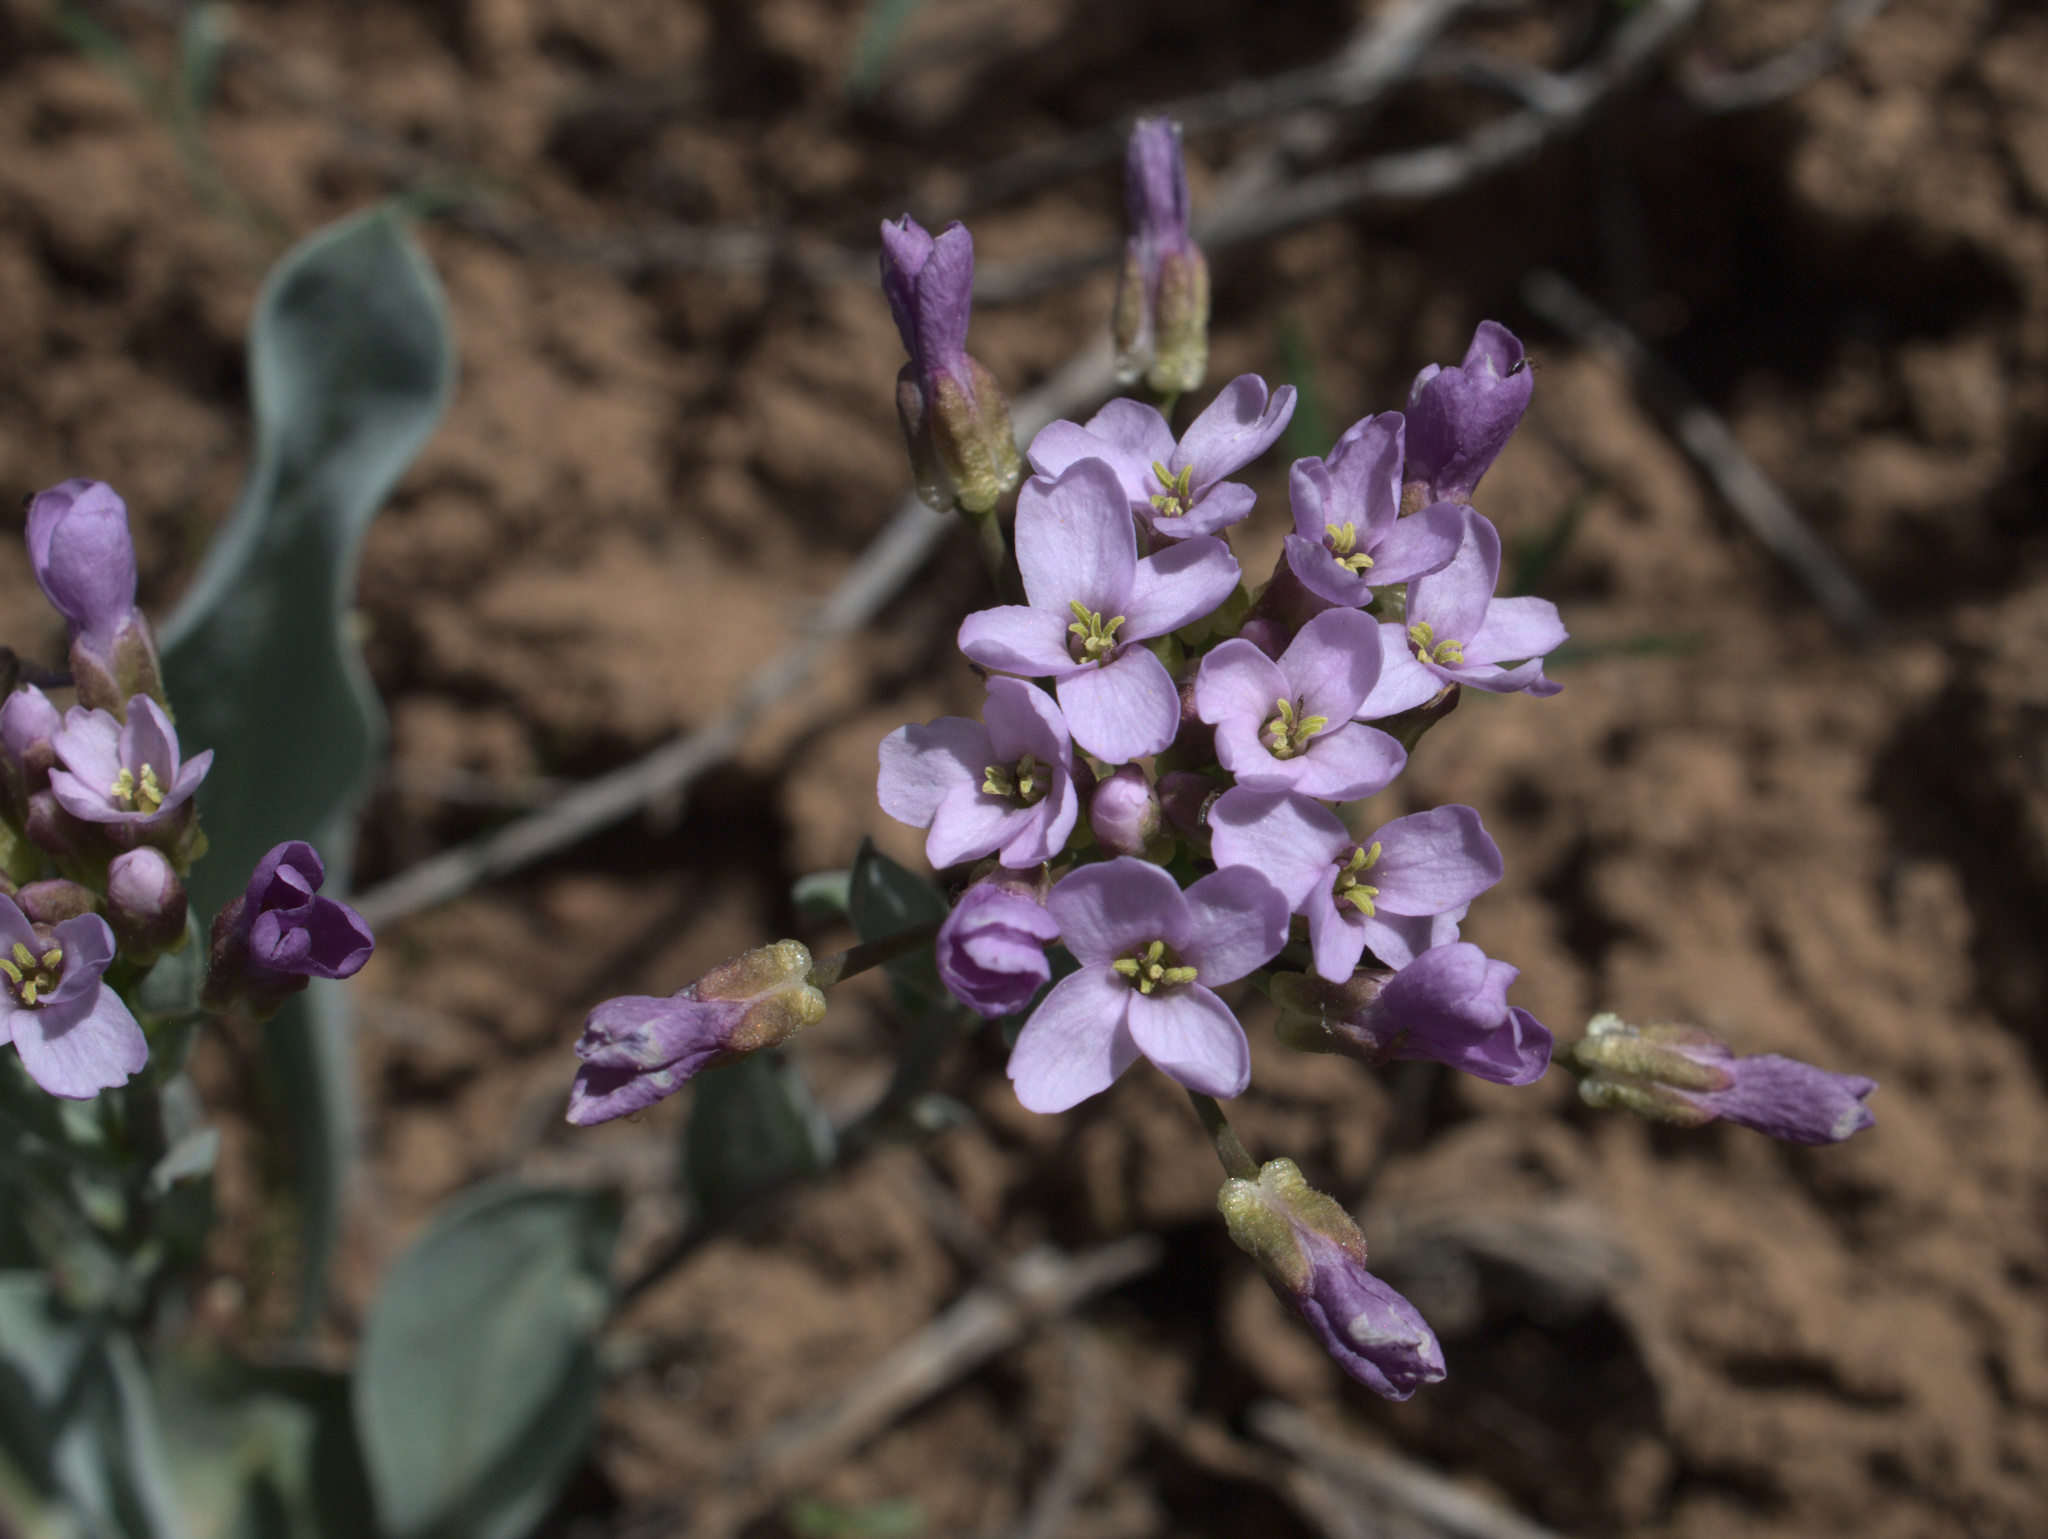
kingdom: Plantae
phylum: Tracheophyta
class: Magnoliopsida
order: Brassicales
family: Brassicaceae
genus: Phoenicaulis
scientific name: Phoenicaulis cheiranthoides
